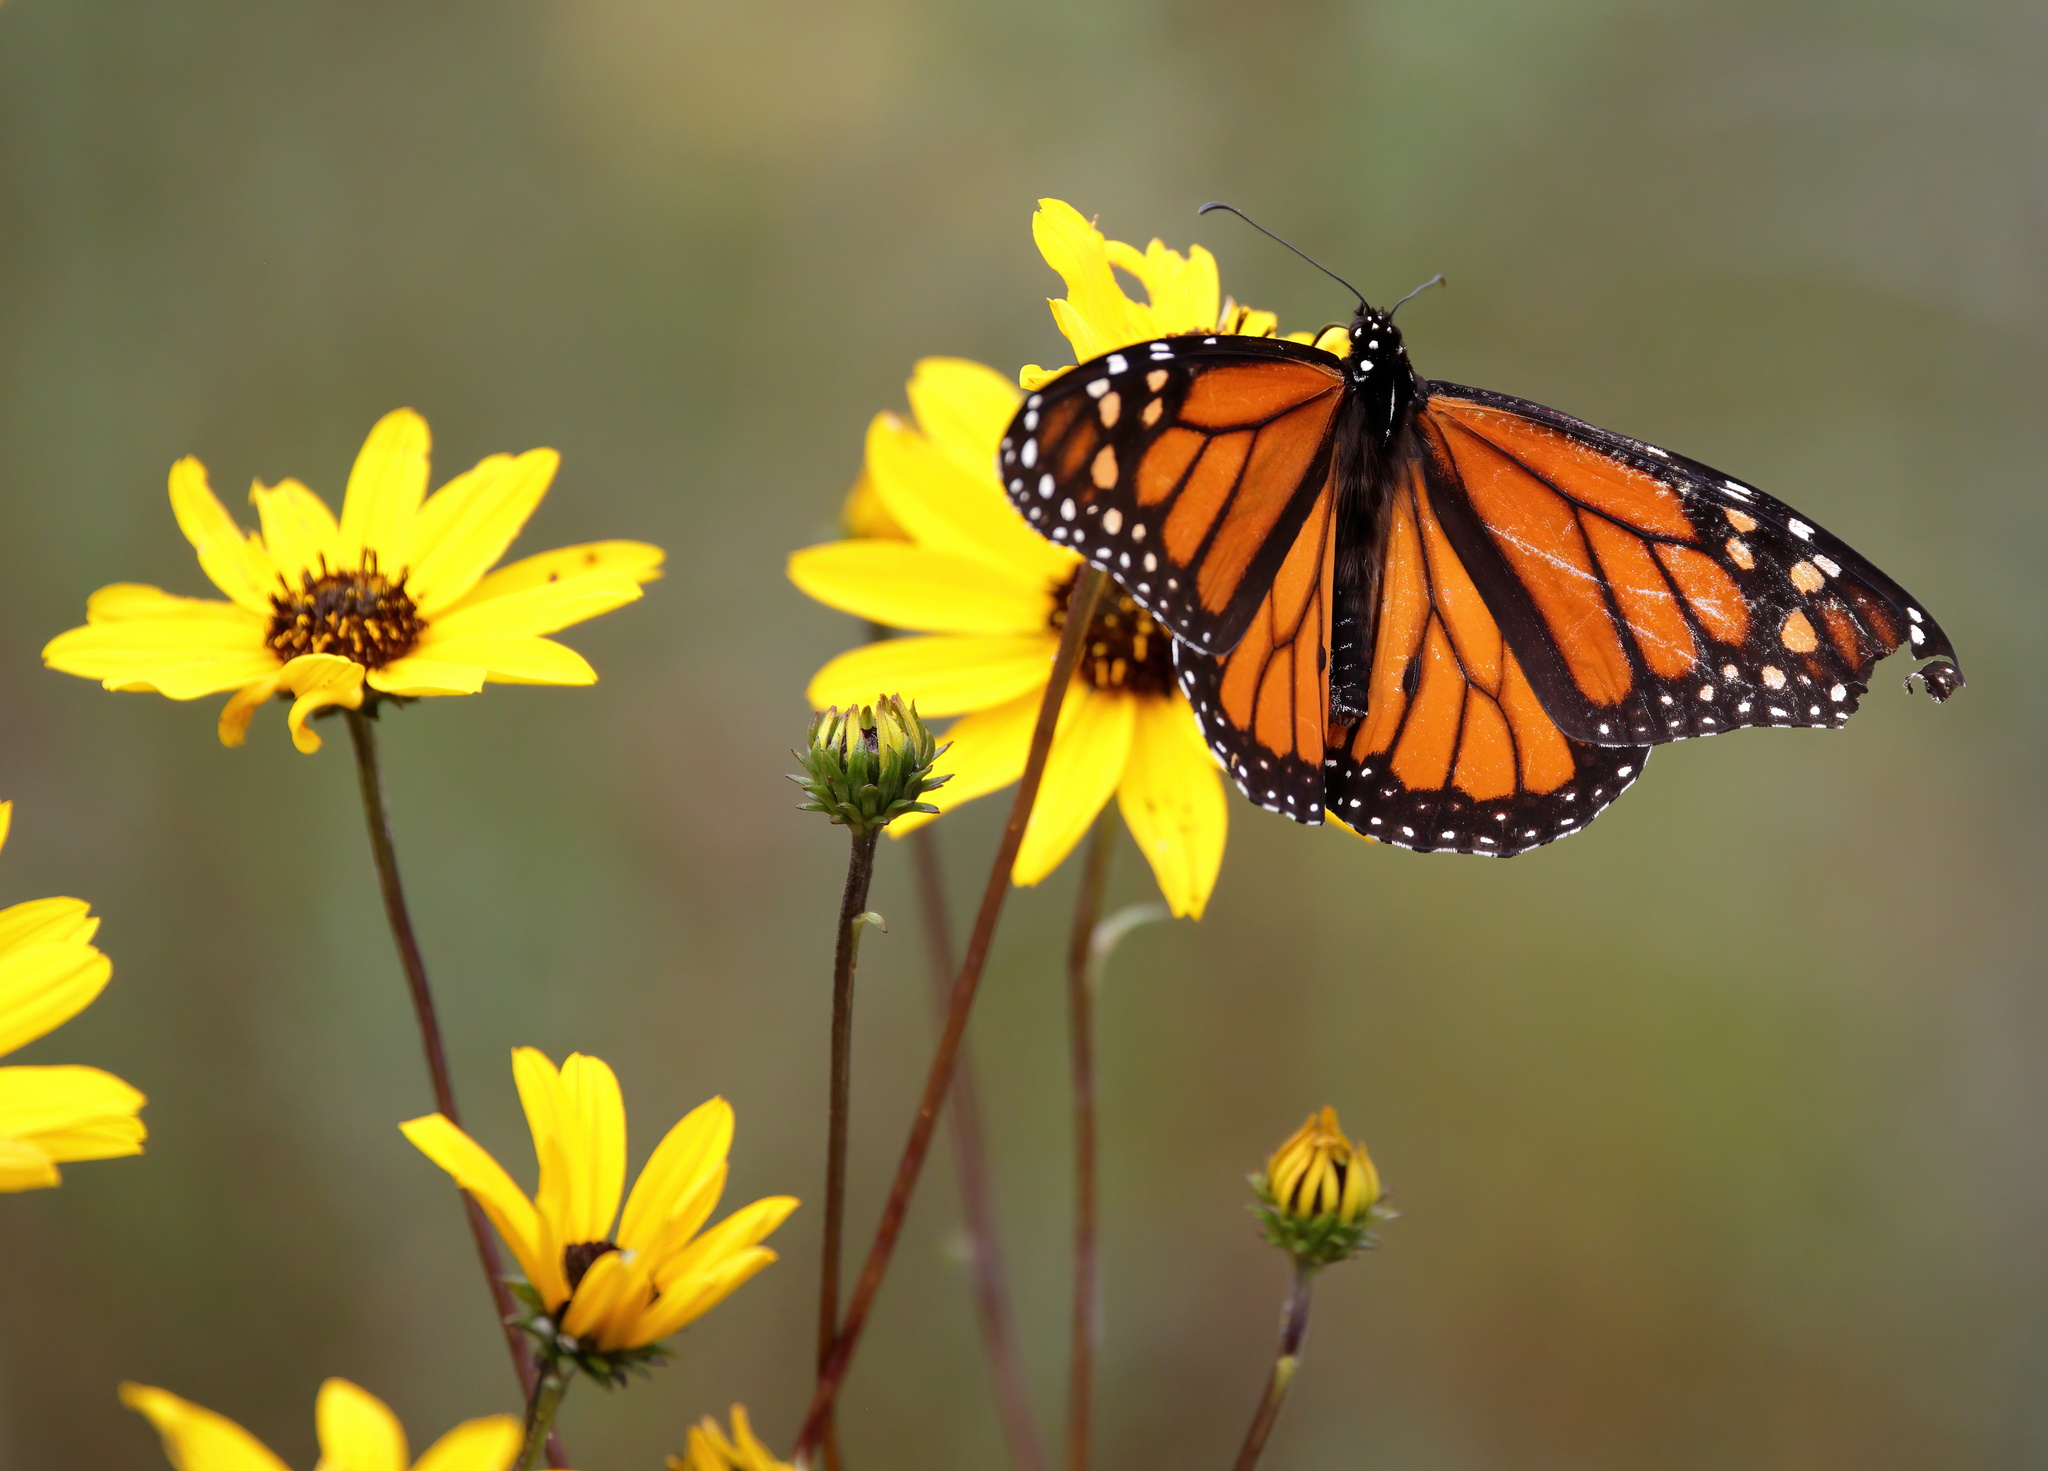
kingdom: Animalia
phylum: Arthropoda
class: Insecta
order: Lepidoptera
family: Nymphalidae
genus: Danaus
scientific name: Danaus plexippus
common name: Monarch
